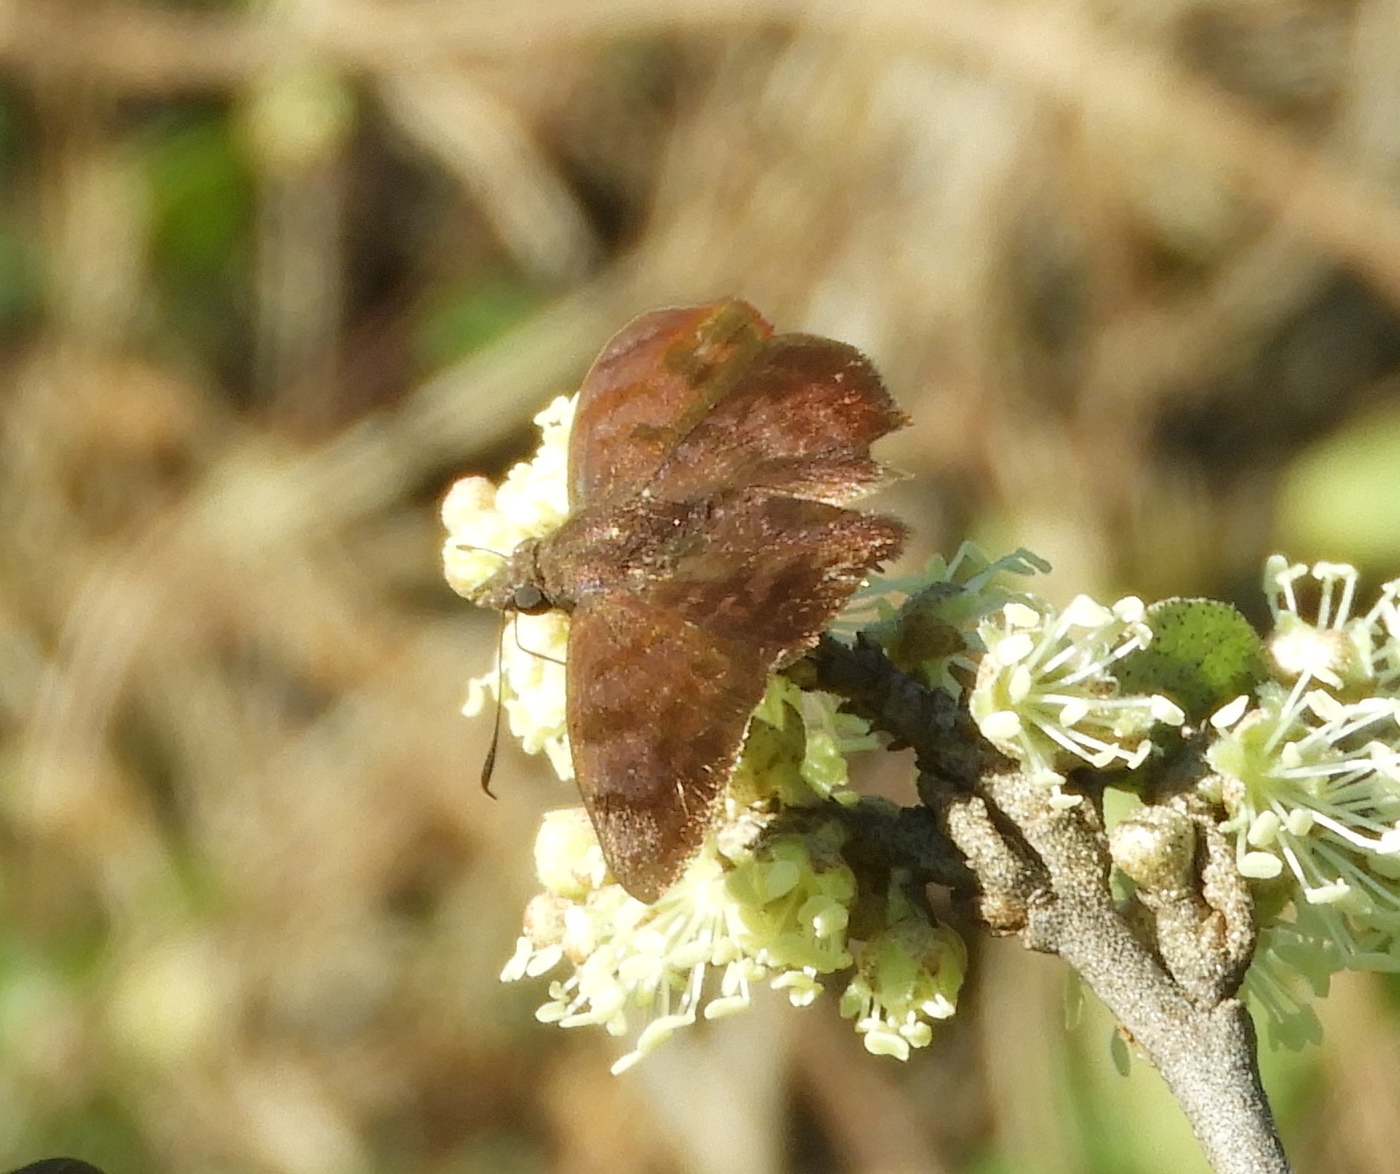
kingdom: Animalia
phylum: Arthropoda
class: Insecta
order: Lepidoptera
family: Hesperiidae
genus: Pellicia
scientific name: Pellicia dimidiata
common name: Morning glory pellicia
